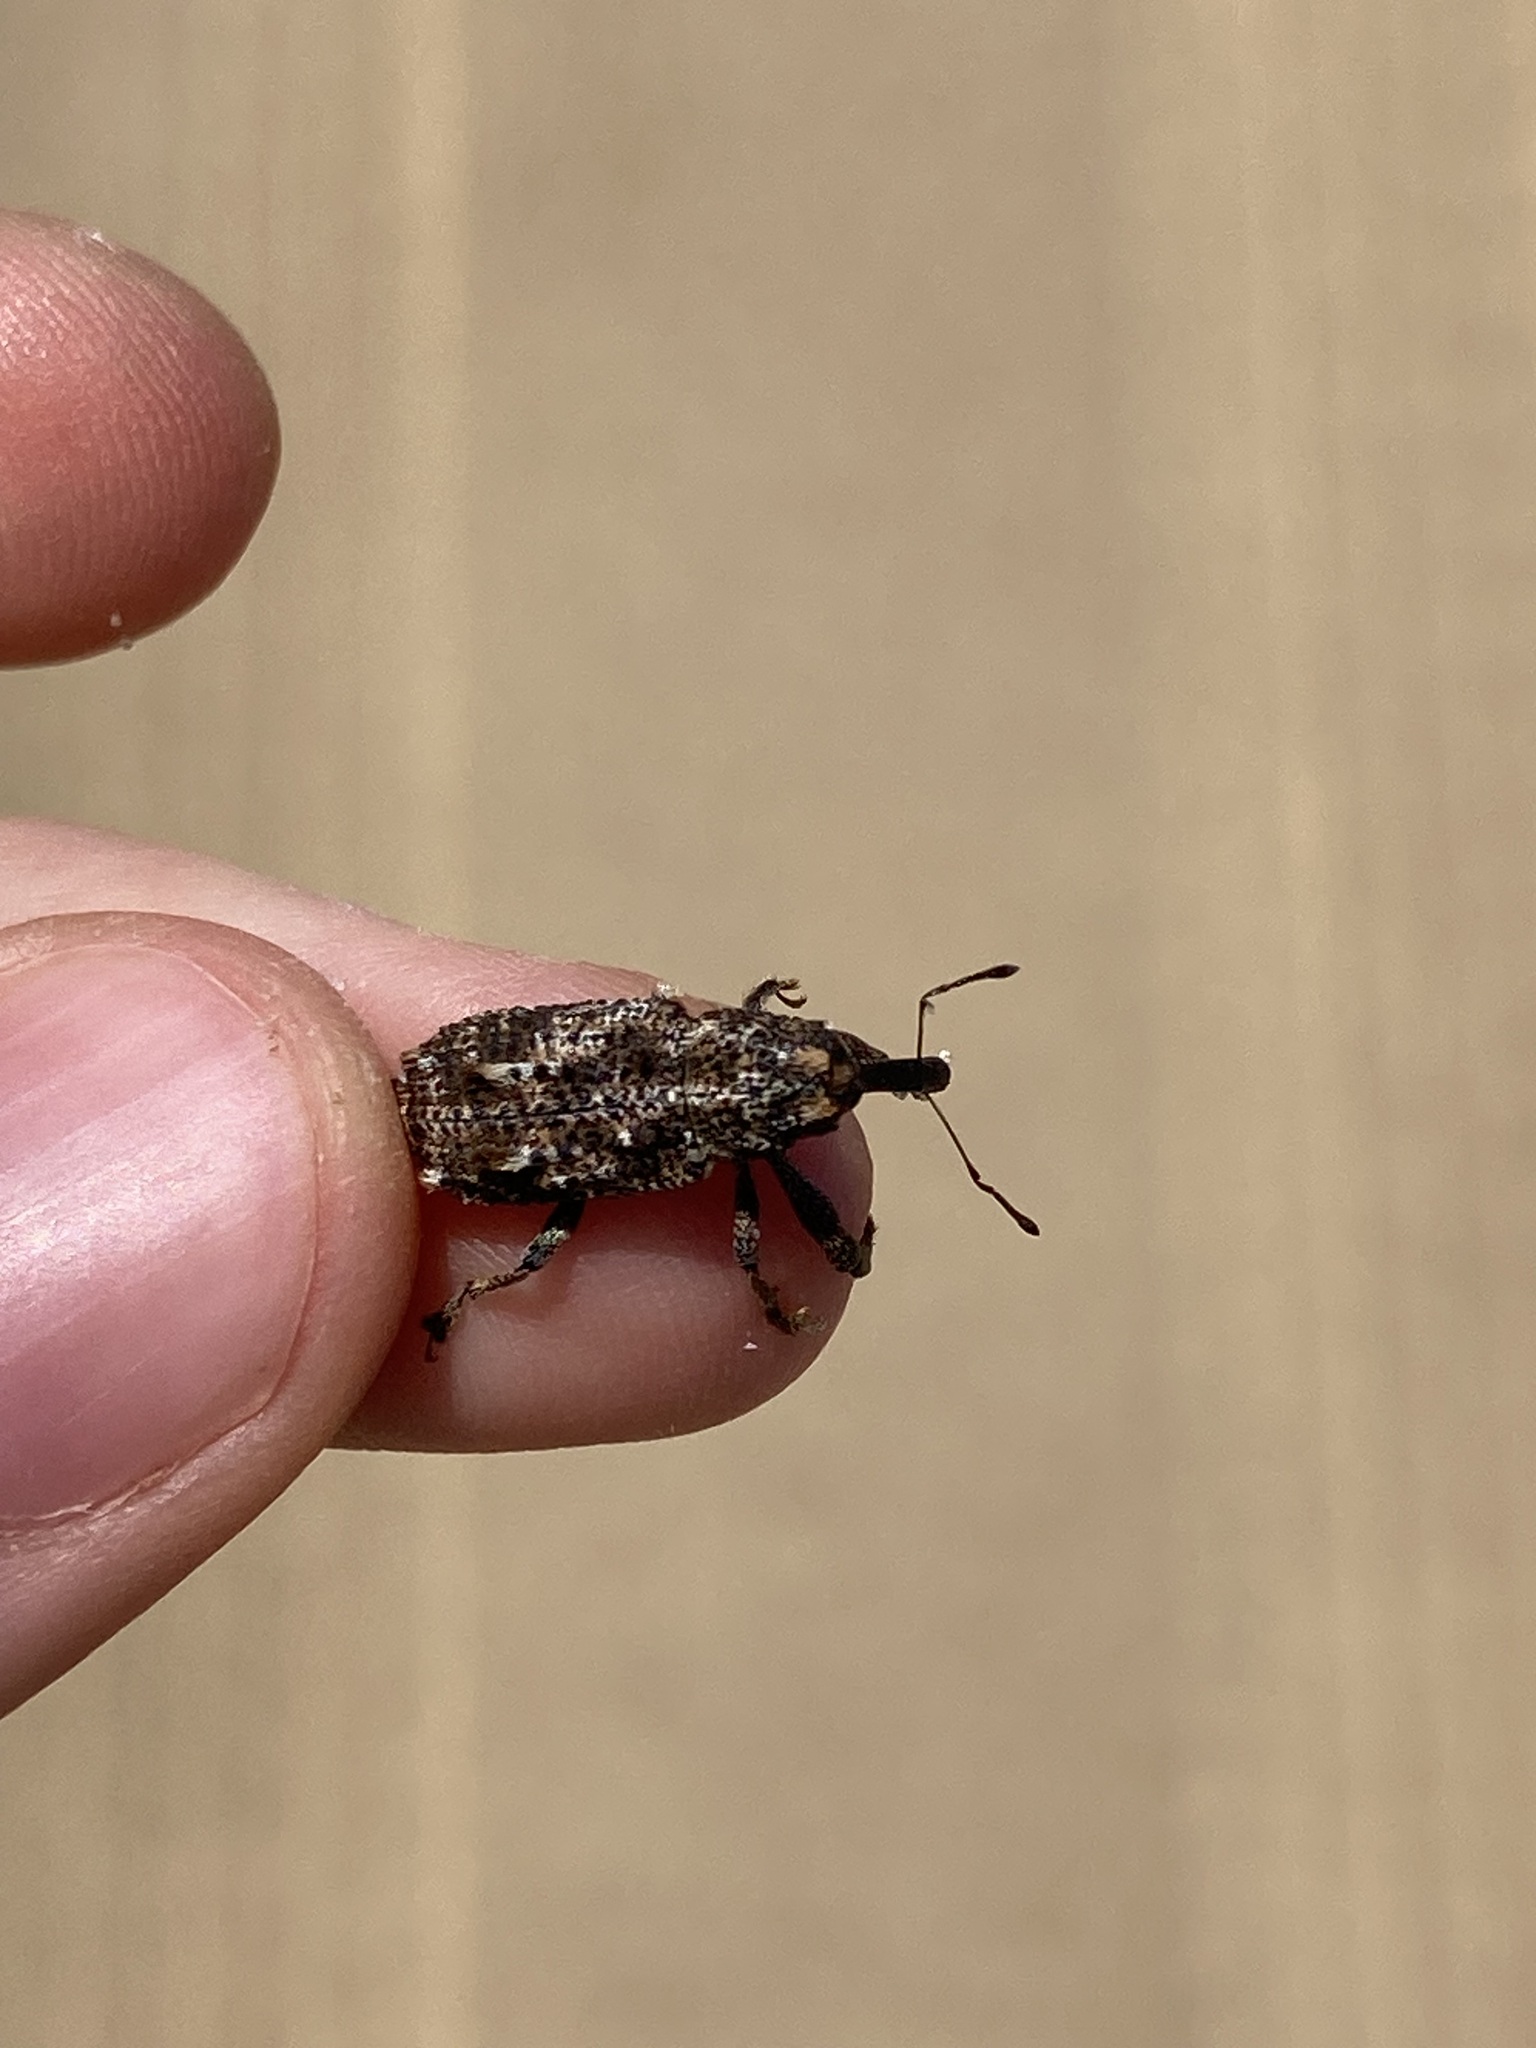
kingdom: Animalia
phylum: Arthropoda
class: Insecta
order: Coleoptera
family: Curculionidae
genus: Orthorhinus
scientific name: Orthorhinus cylindrirostris
